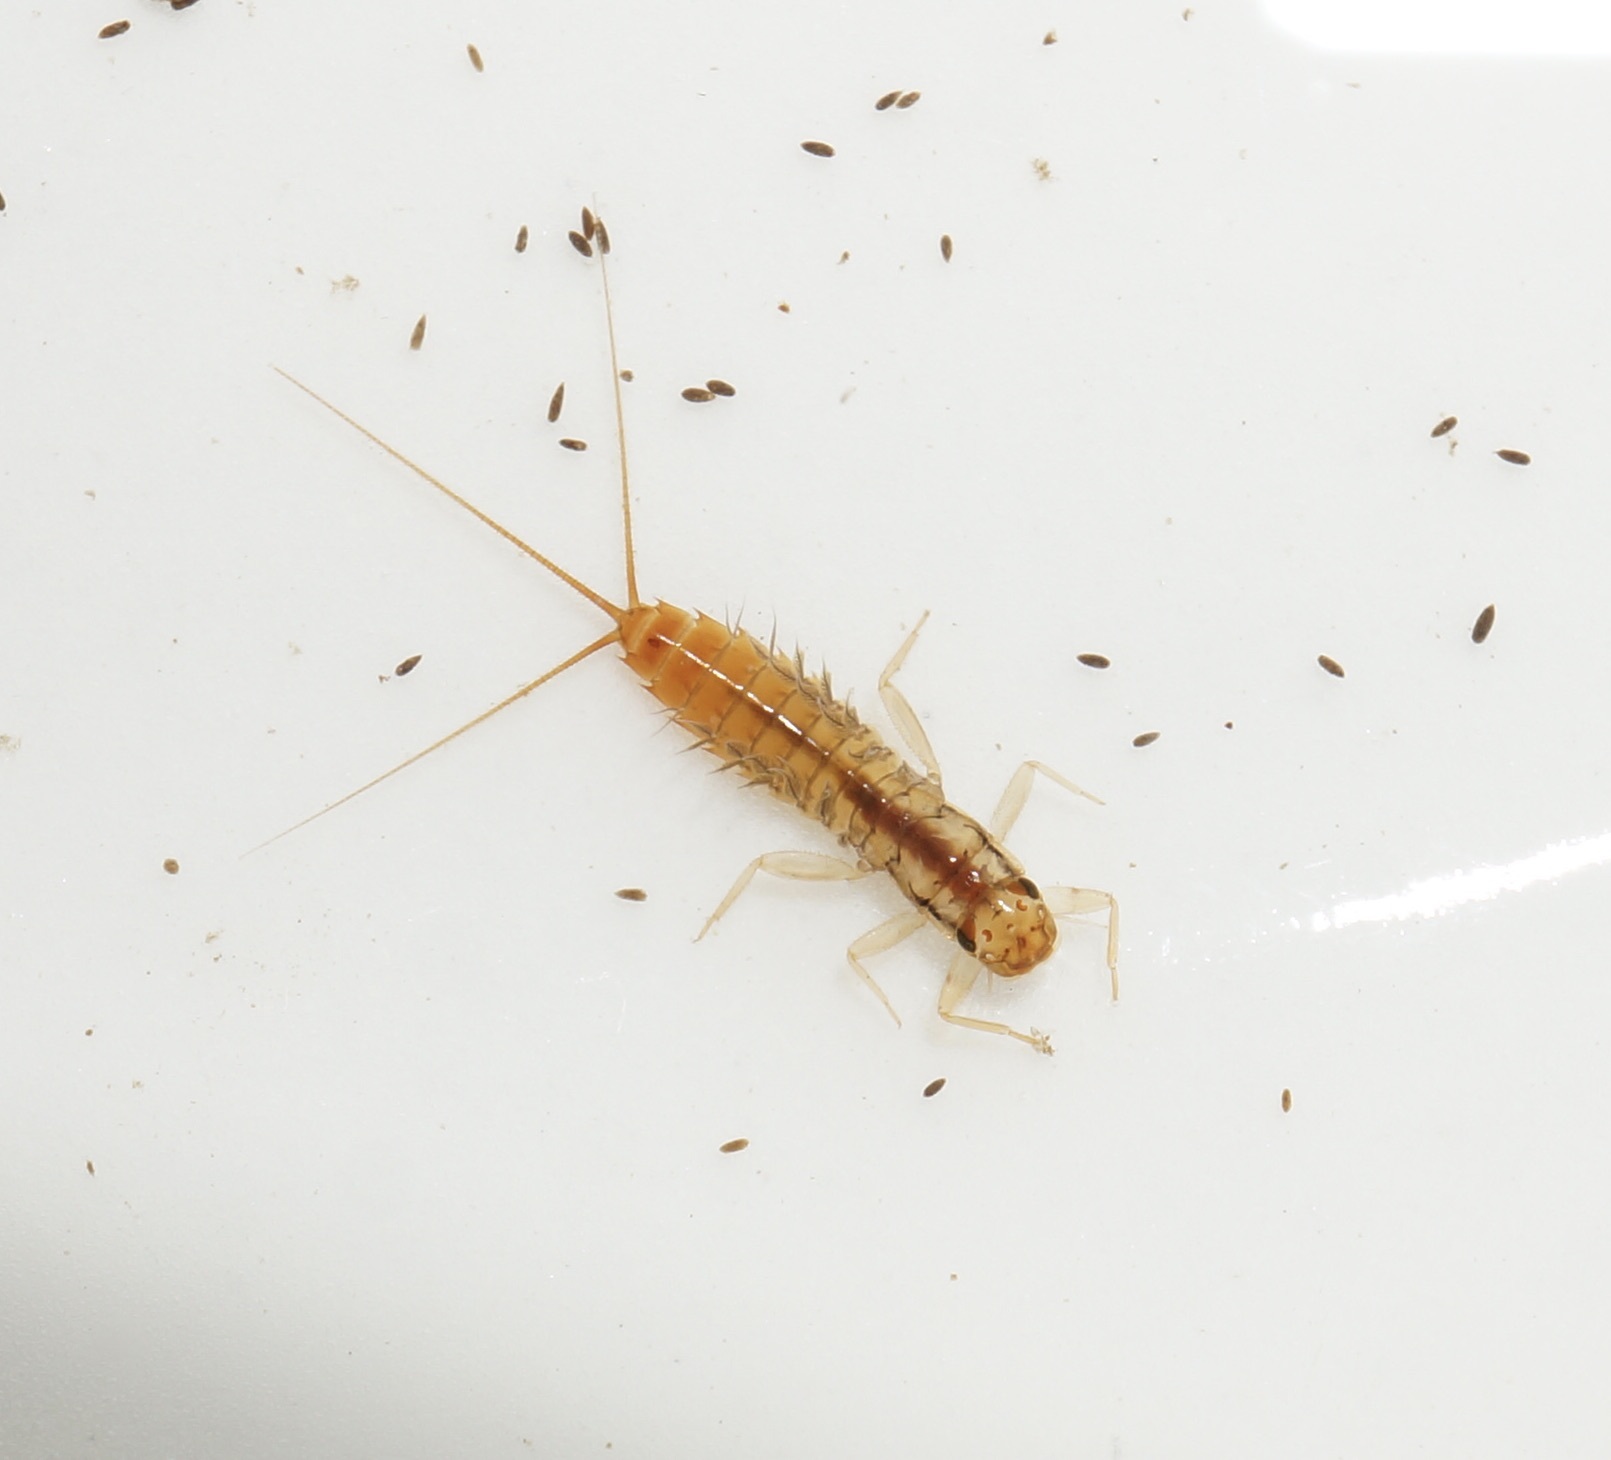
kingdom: Animalia
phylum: Arthropoda
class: Insecta
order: Ephemeroptera
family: Leptophlebiidae
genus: Acanthophlebia
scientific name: Acanthophlebia cruentata
